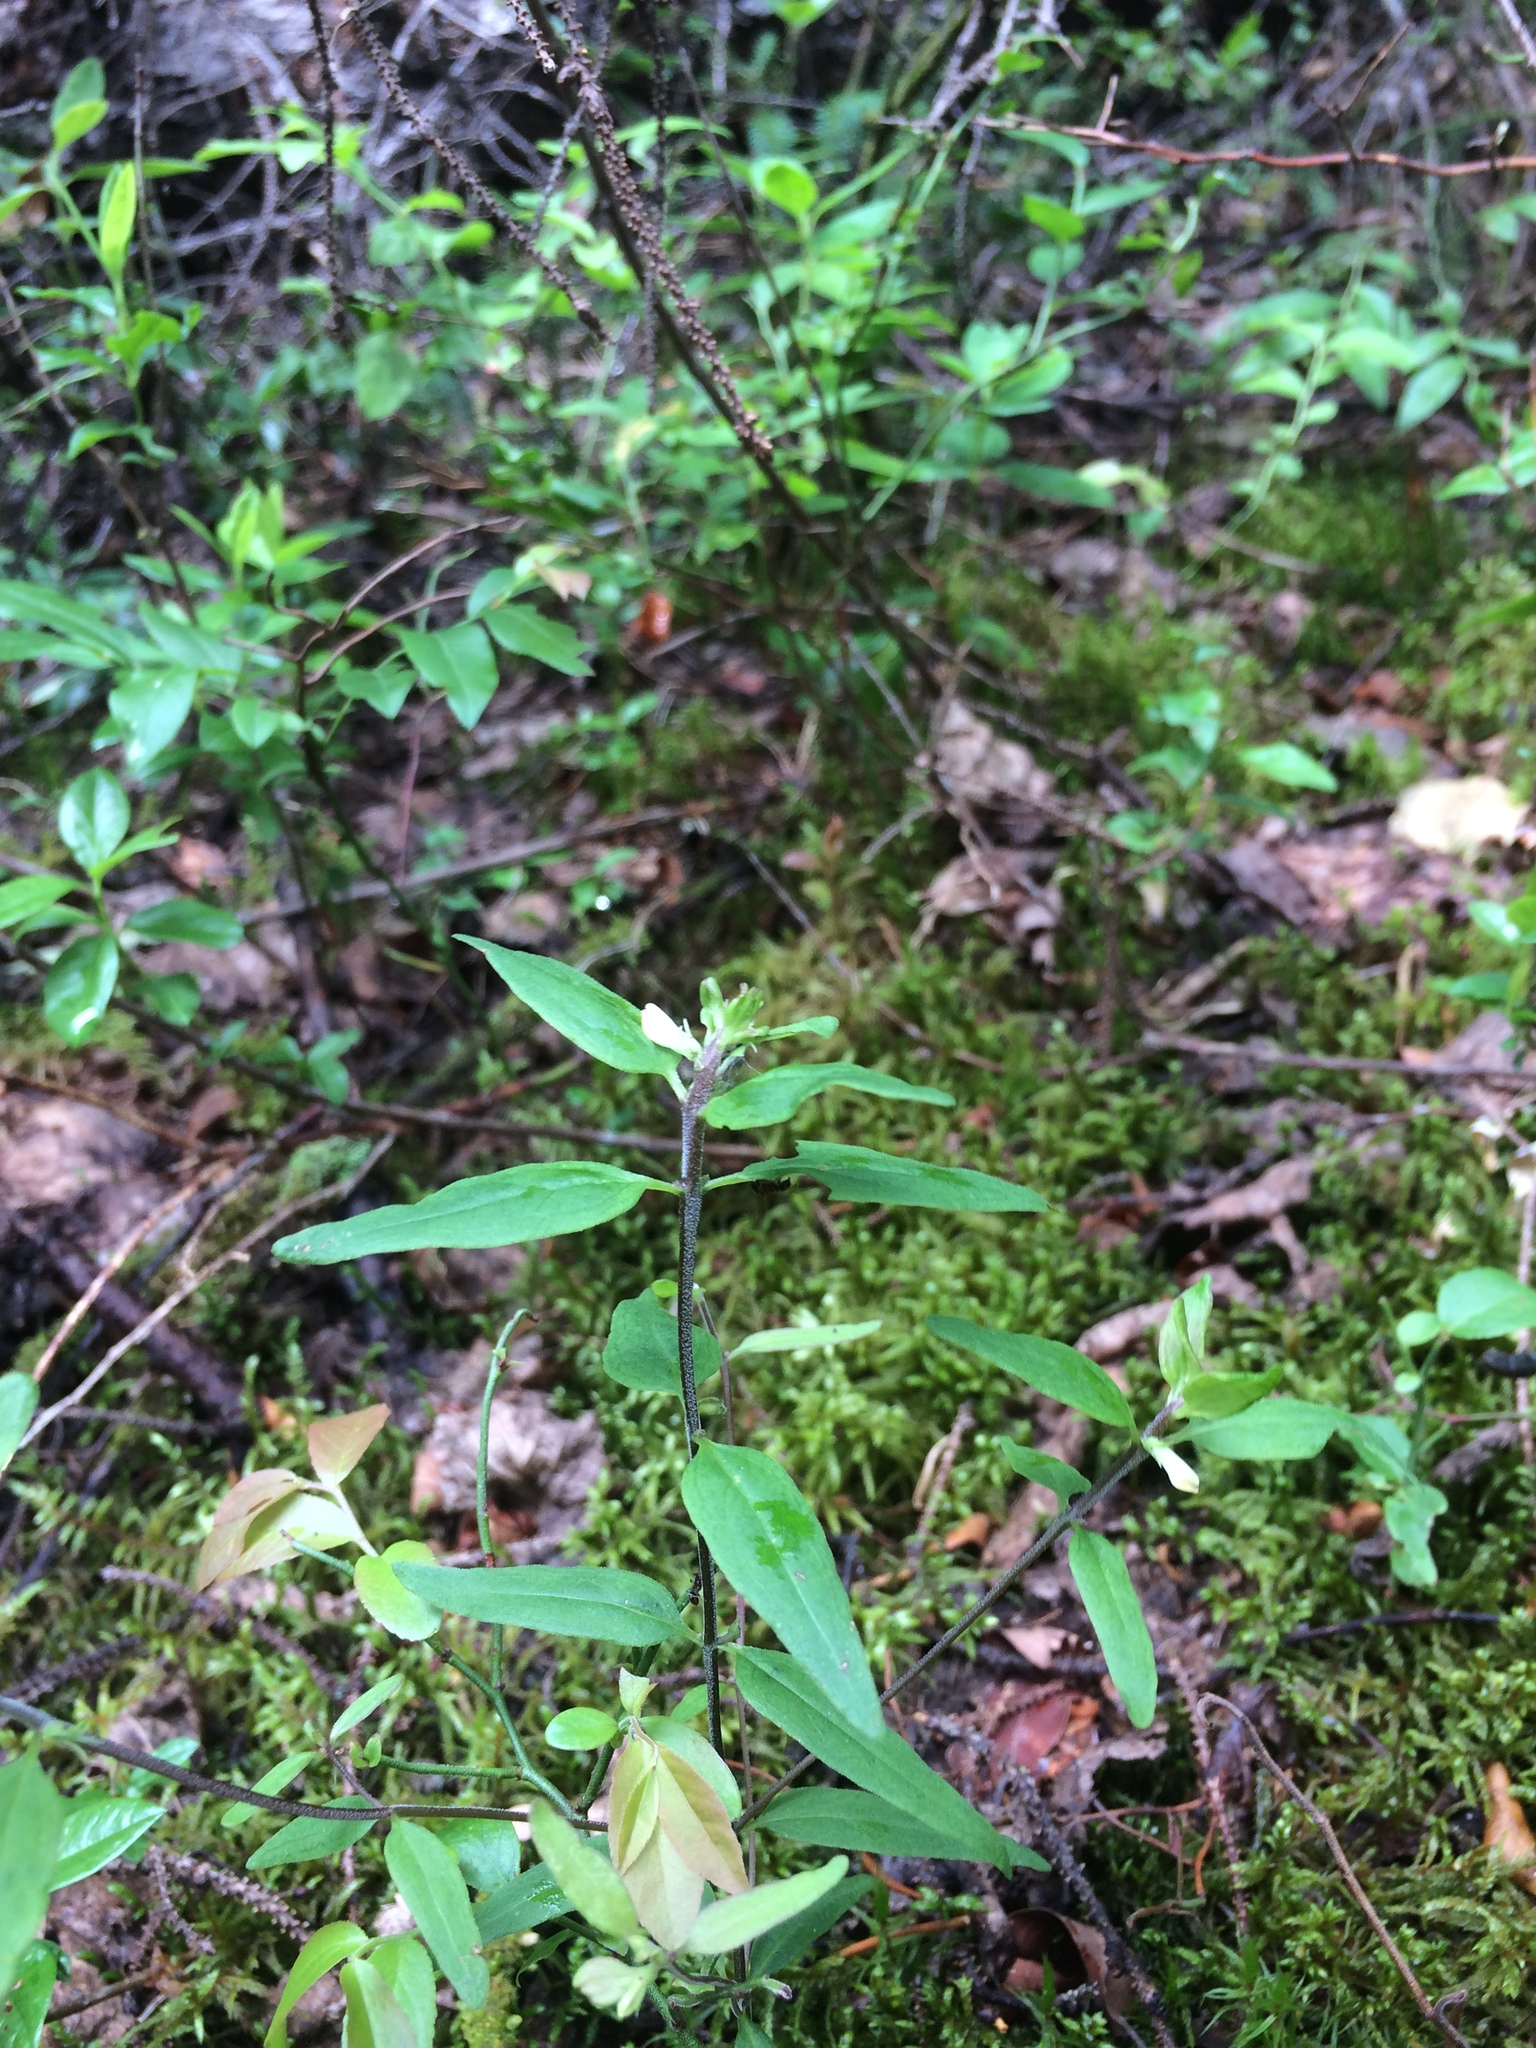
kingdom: Plantae
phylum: Tracheophyta
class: Magnoliopsida
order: Lamiales
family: Orobanchaceae
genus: Melampyrum
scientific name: Melampyrum lineare
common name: American cow-wheat
